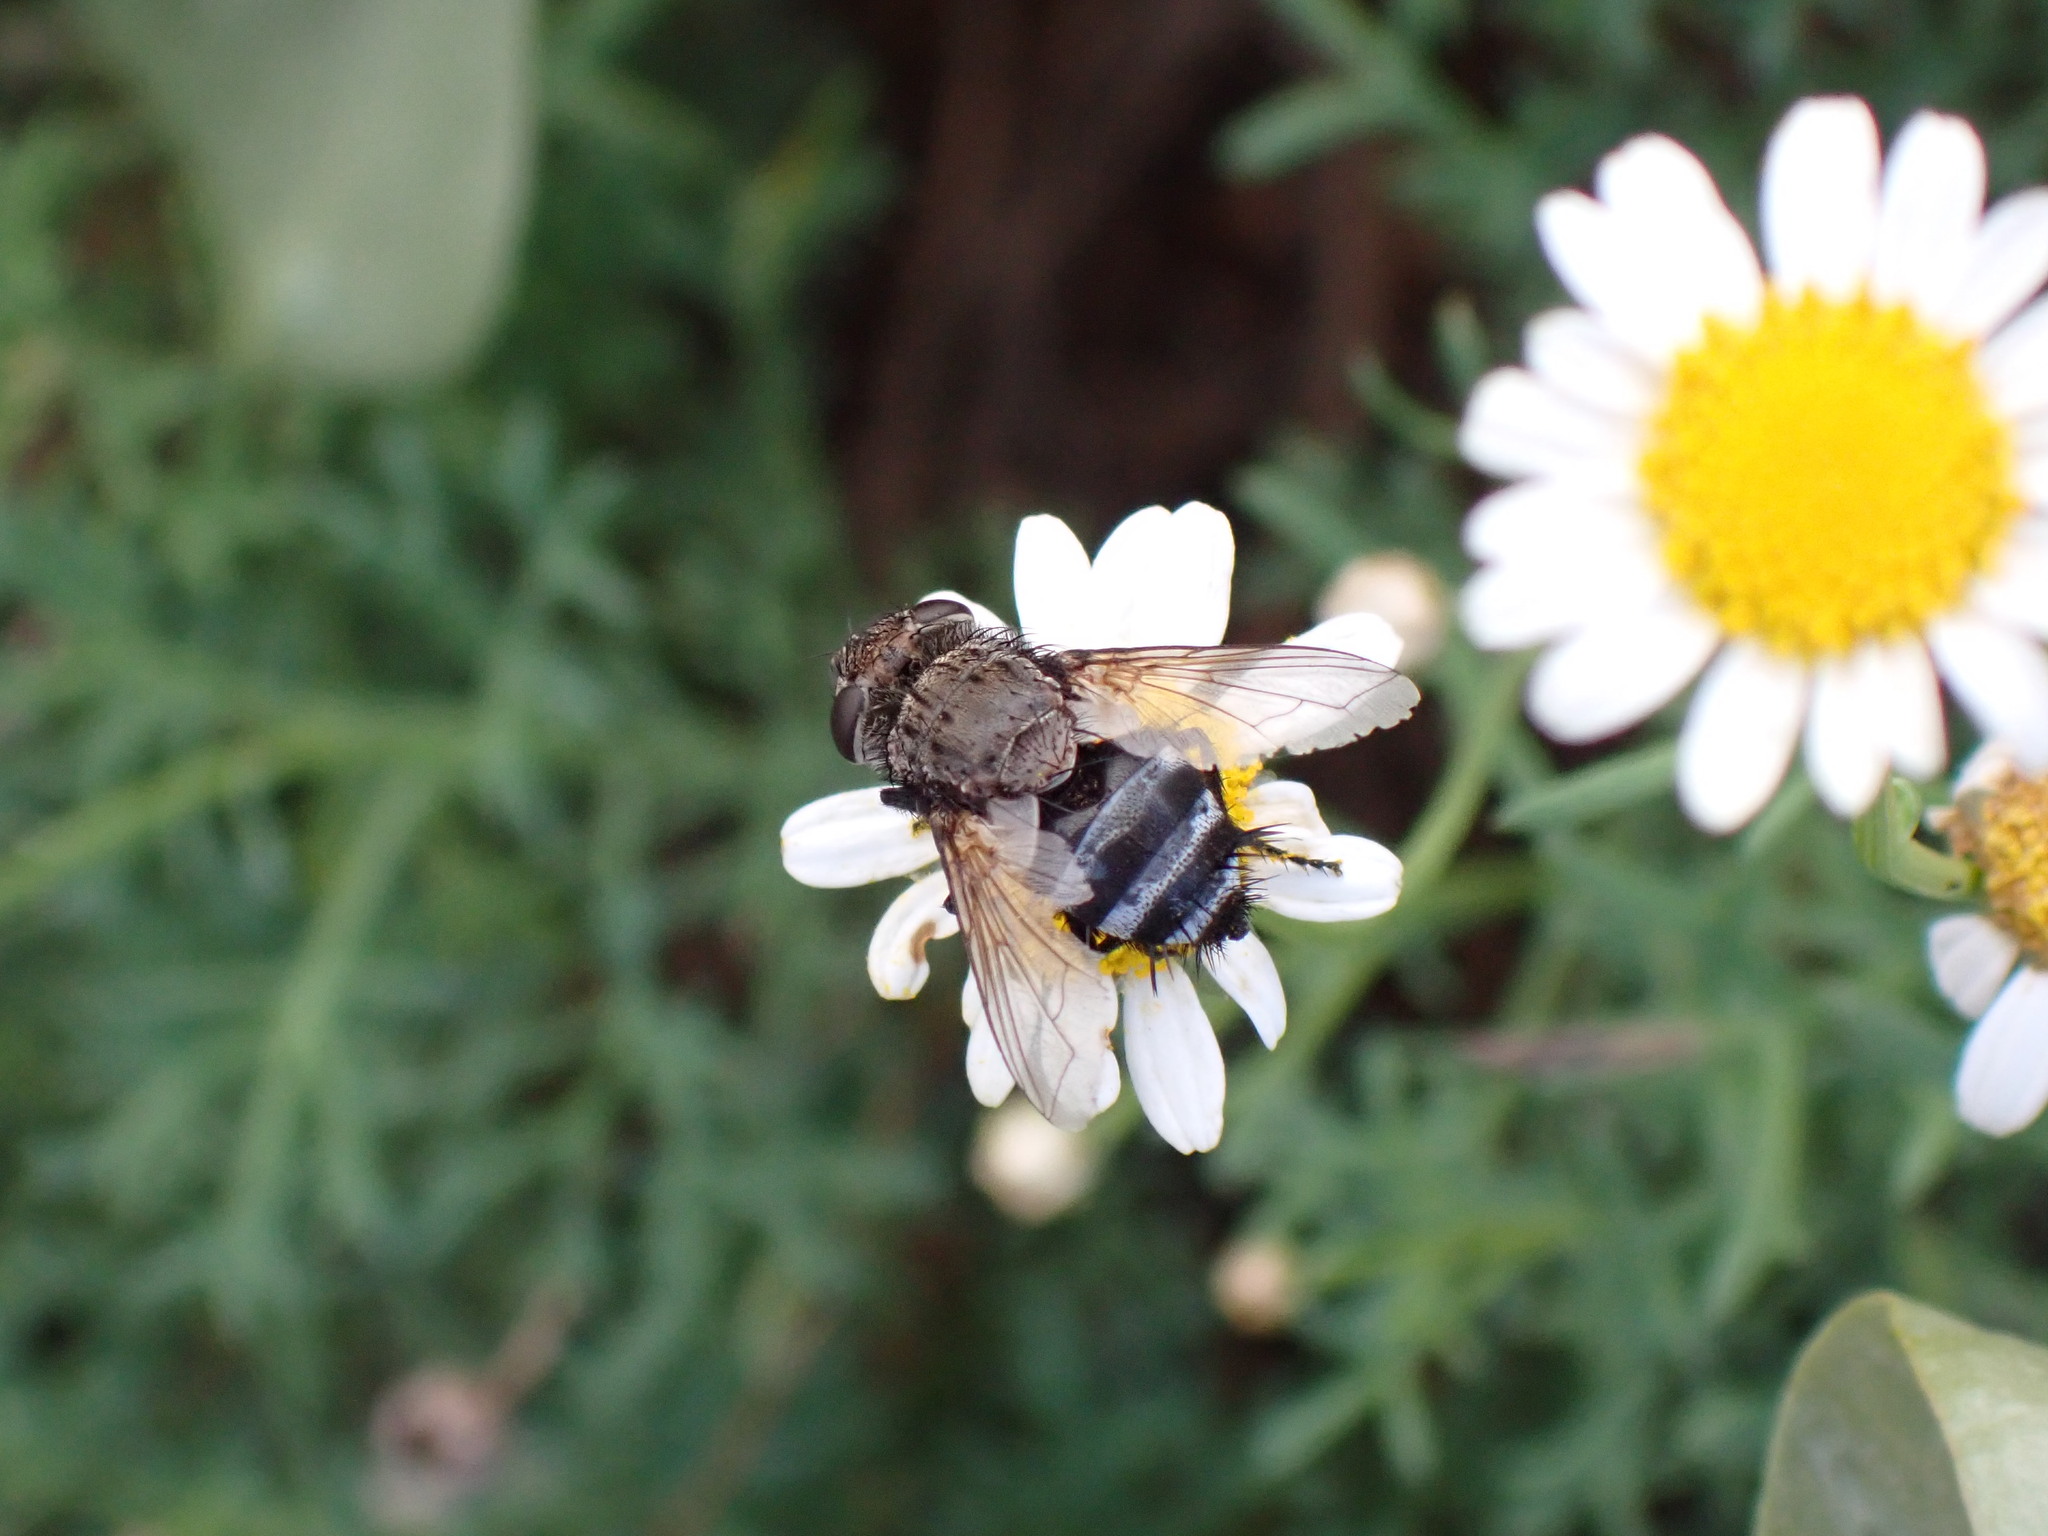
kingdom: Animalia
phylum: Arthropoda
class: Insecta
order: Diptera
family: Tachinidae
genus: Pseudogonia
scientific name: Pseudogonia fasciata
